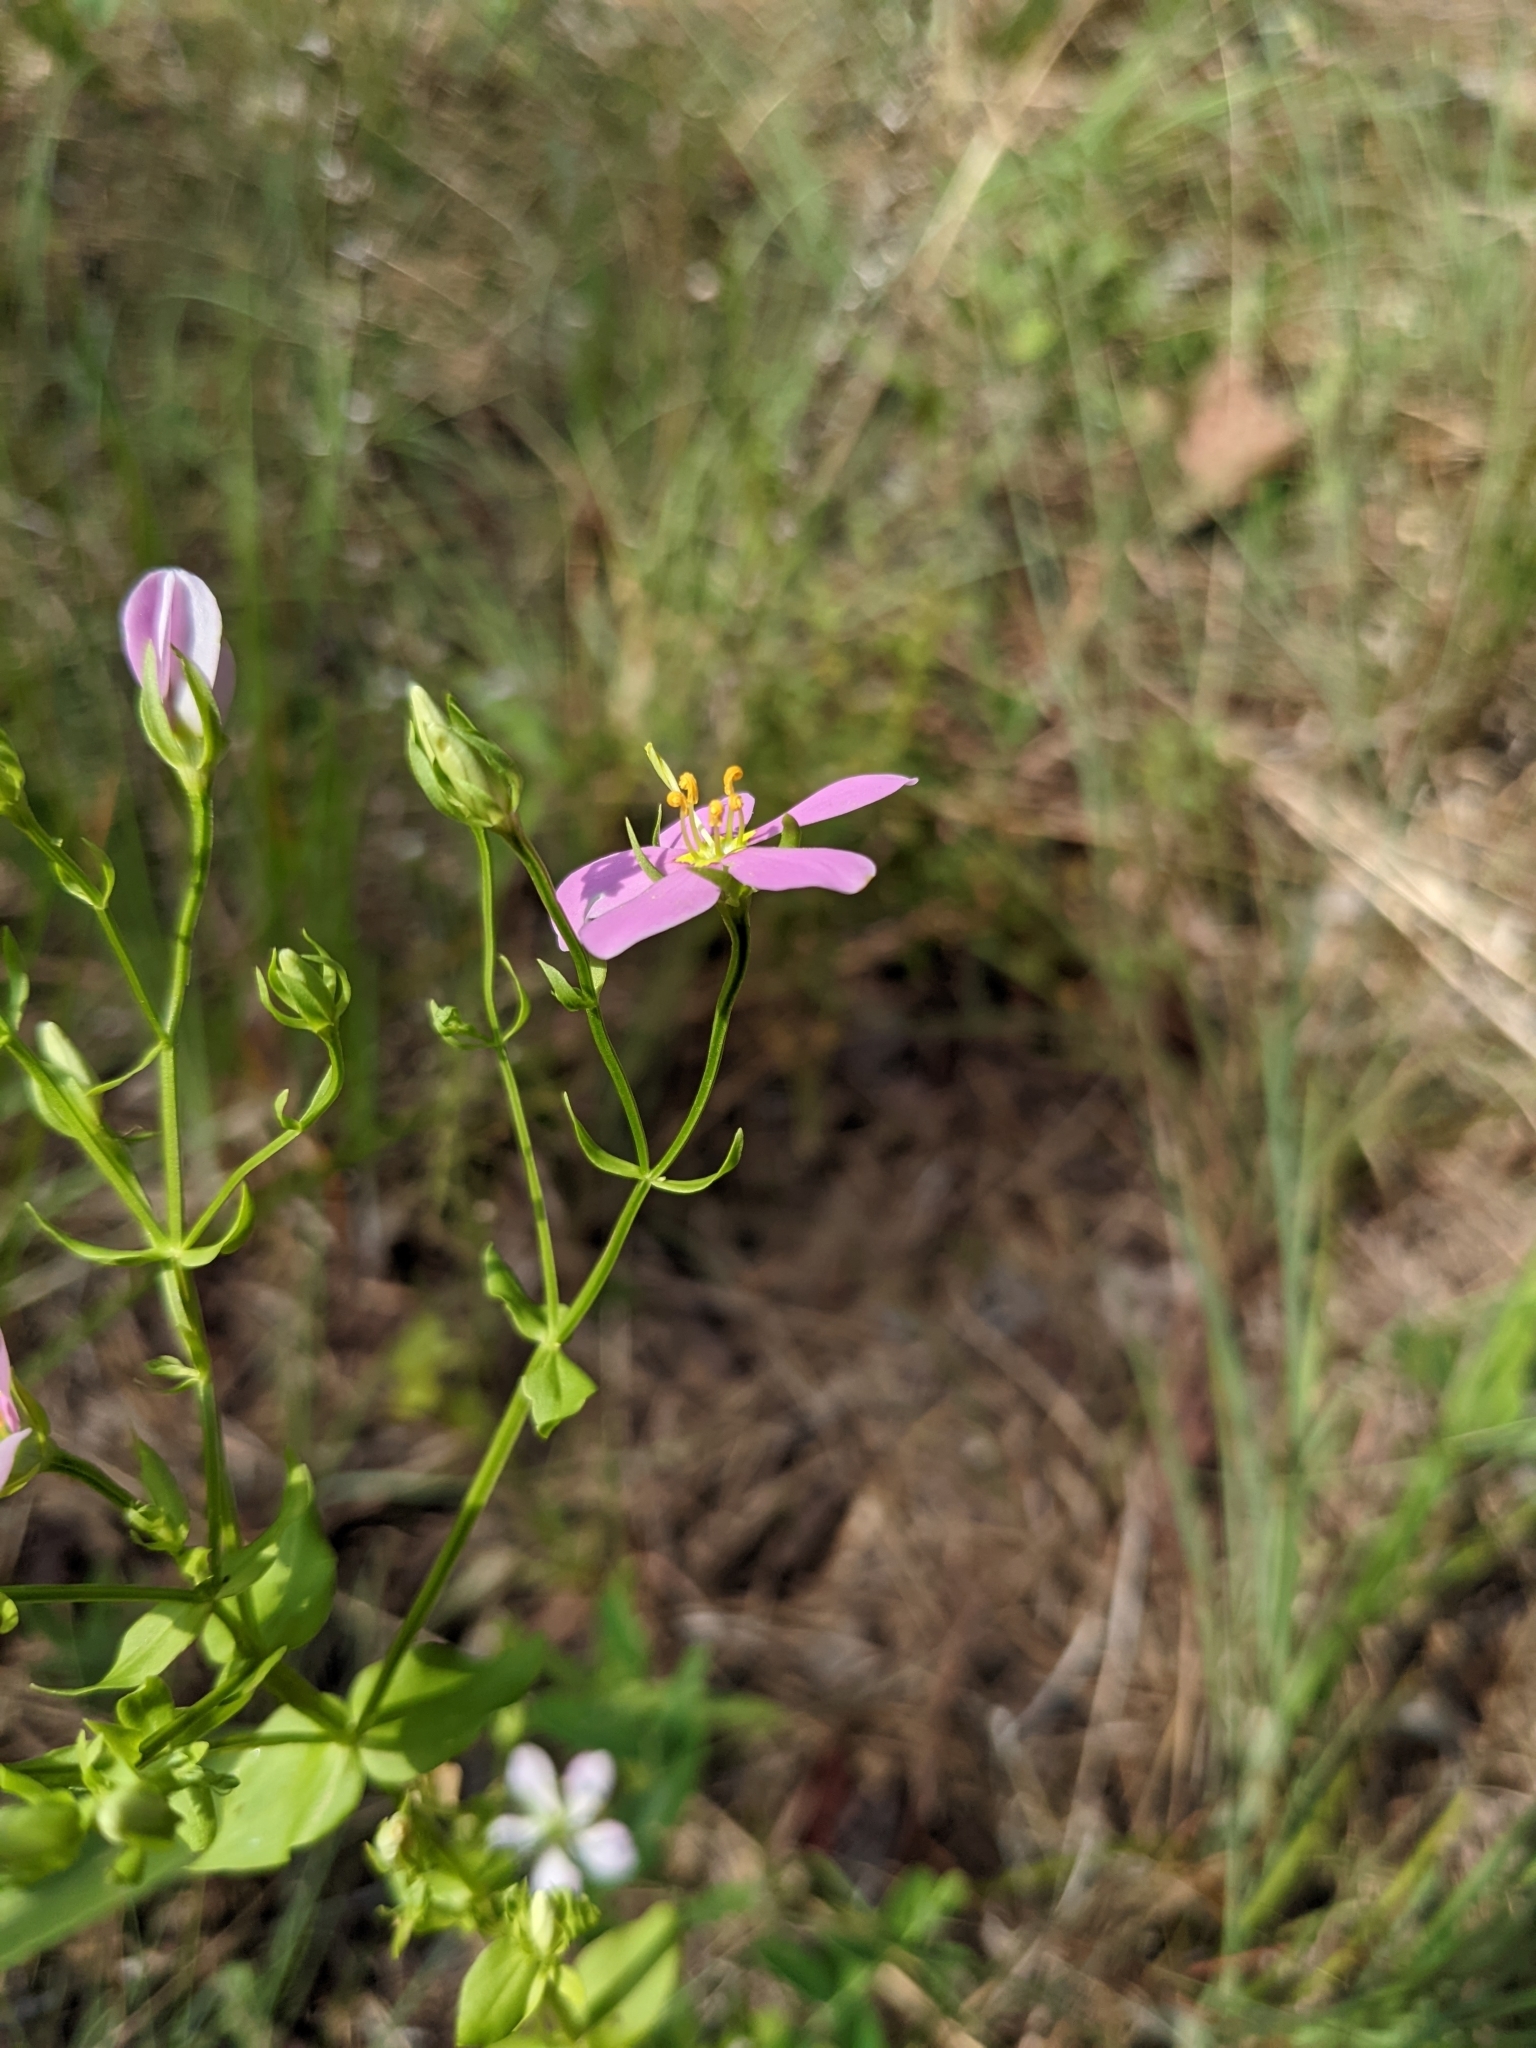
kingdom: Plantae
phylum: Tracheophyta
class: Magnoliopsida
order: Gentianales
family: Gentianaceae
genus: Sabatia
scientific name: Sabatia angularis
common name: Rose-pink
